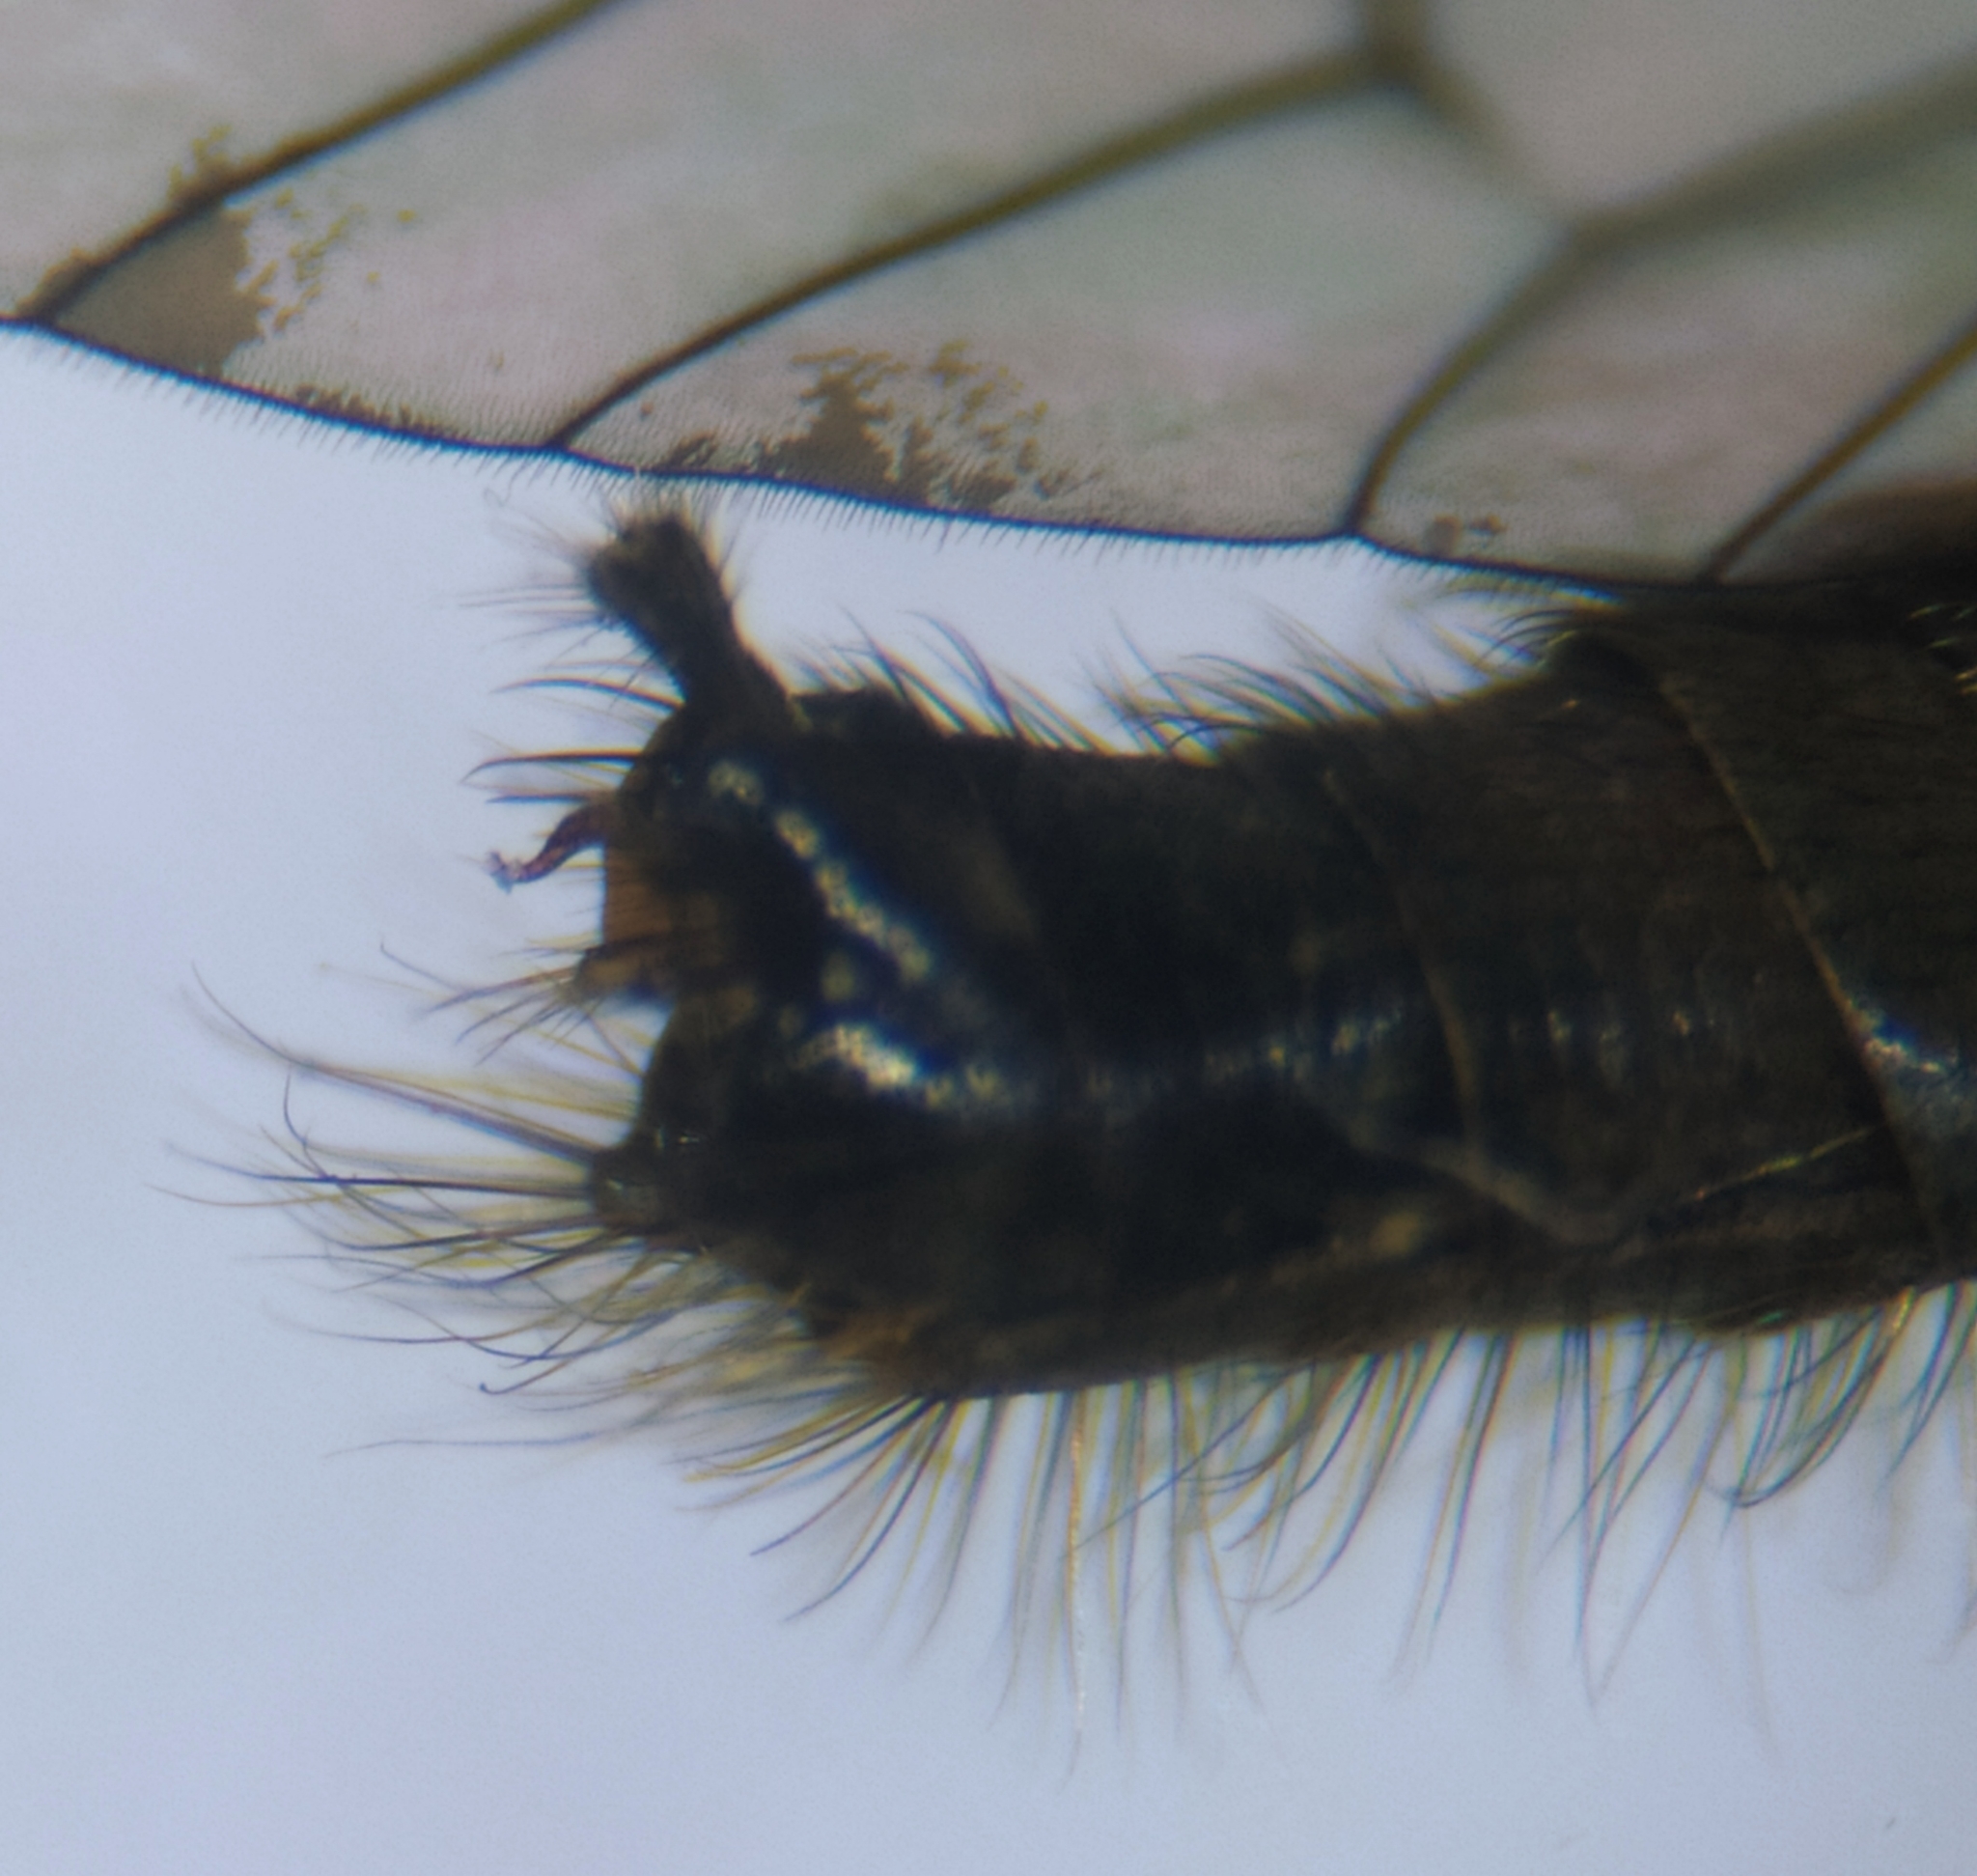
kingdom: Animalia
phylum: Arthropoda
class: Insecta
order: Diptera
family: Therevidae
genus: Thereva
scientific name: Thereva rustica
